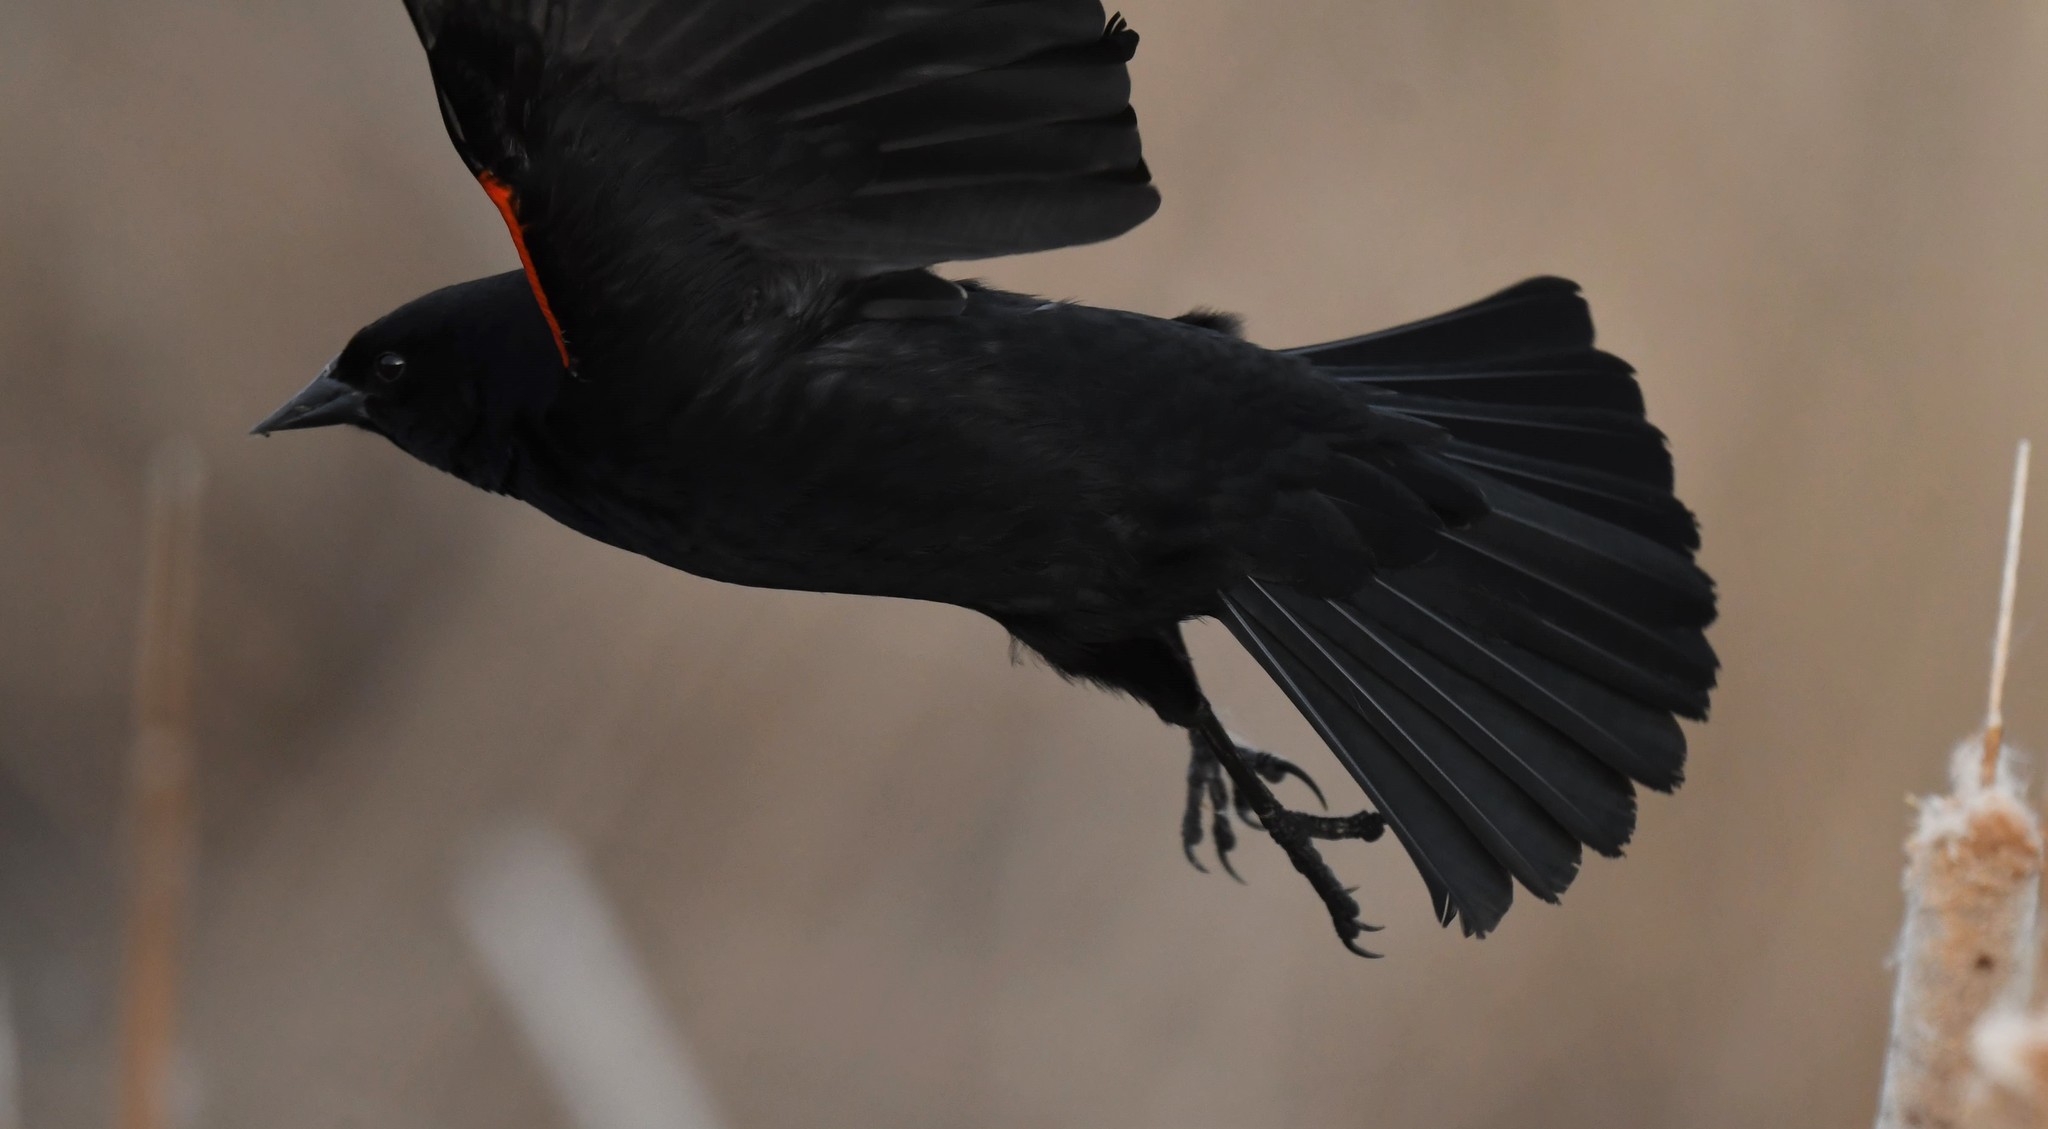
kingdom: Animalia
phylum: Chordata
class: Aves
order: Passeriformes
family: Icteridae
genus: Agelaius
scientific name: Agelaius phoeniceus
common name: Red-winged blackbird
